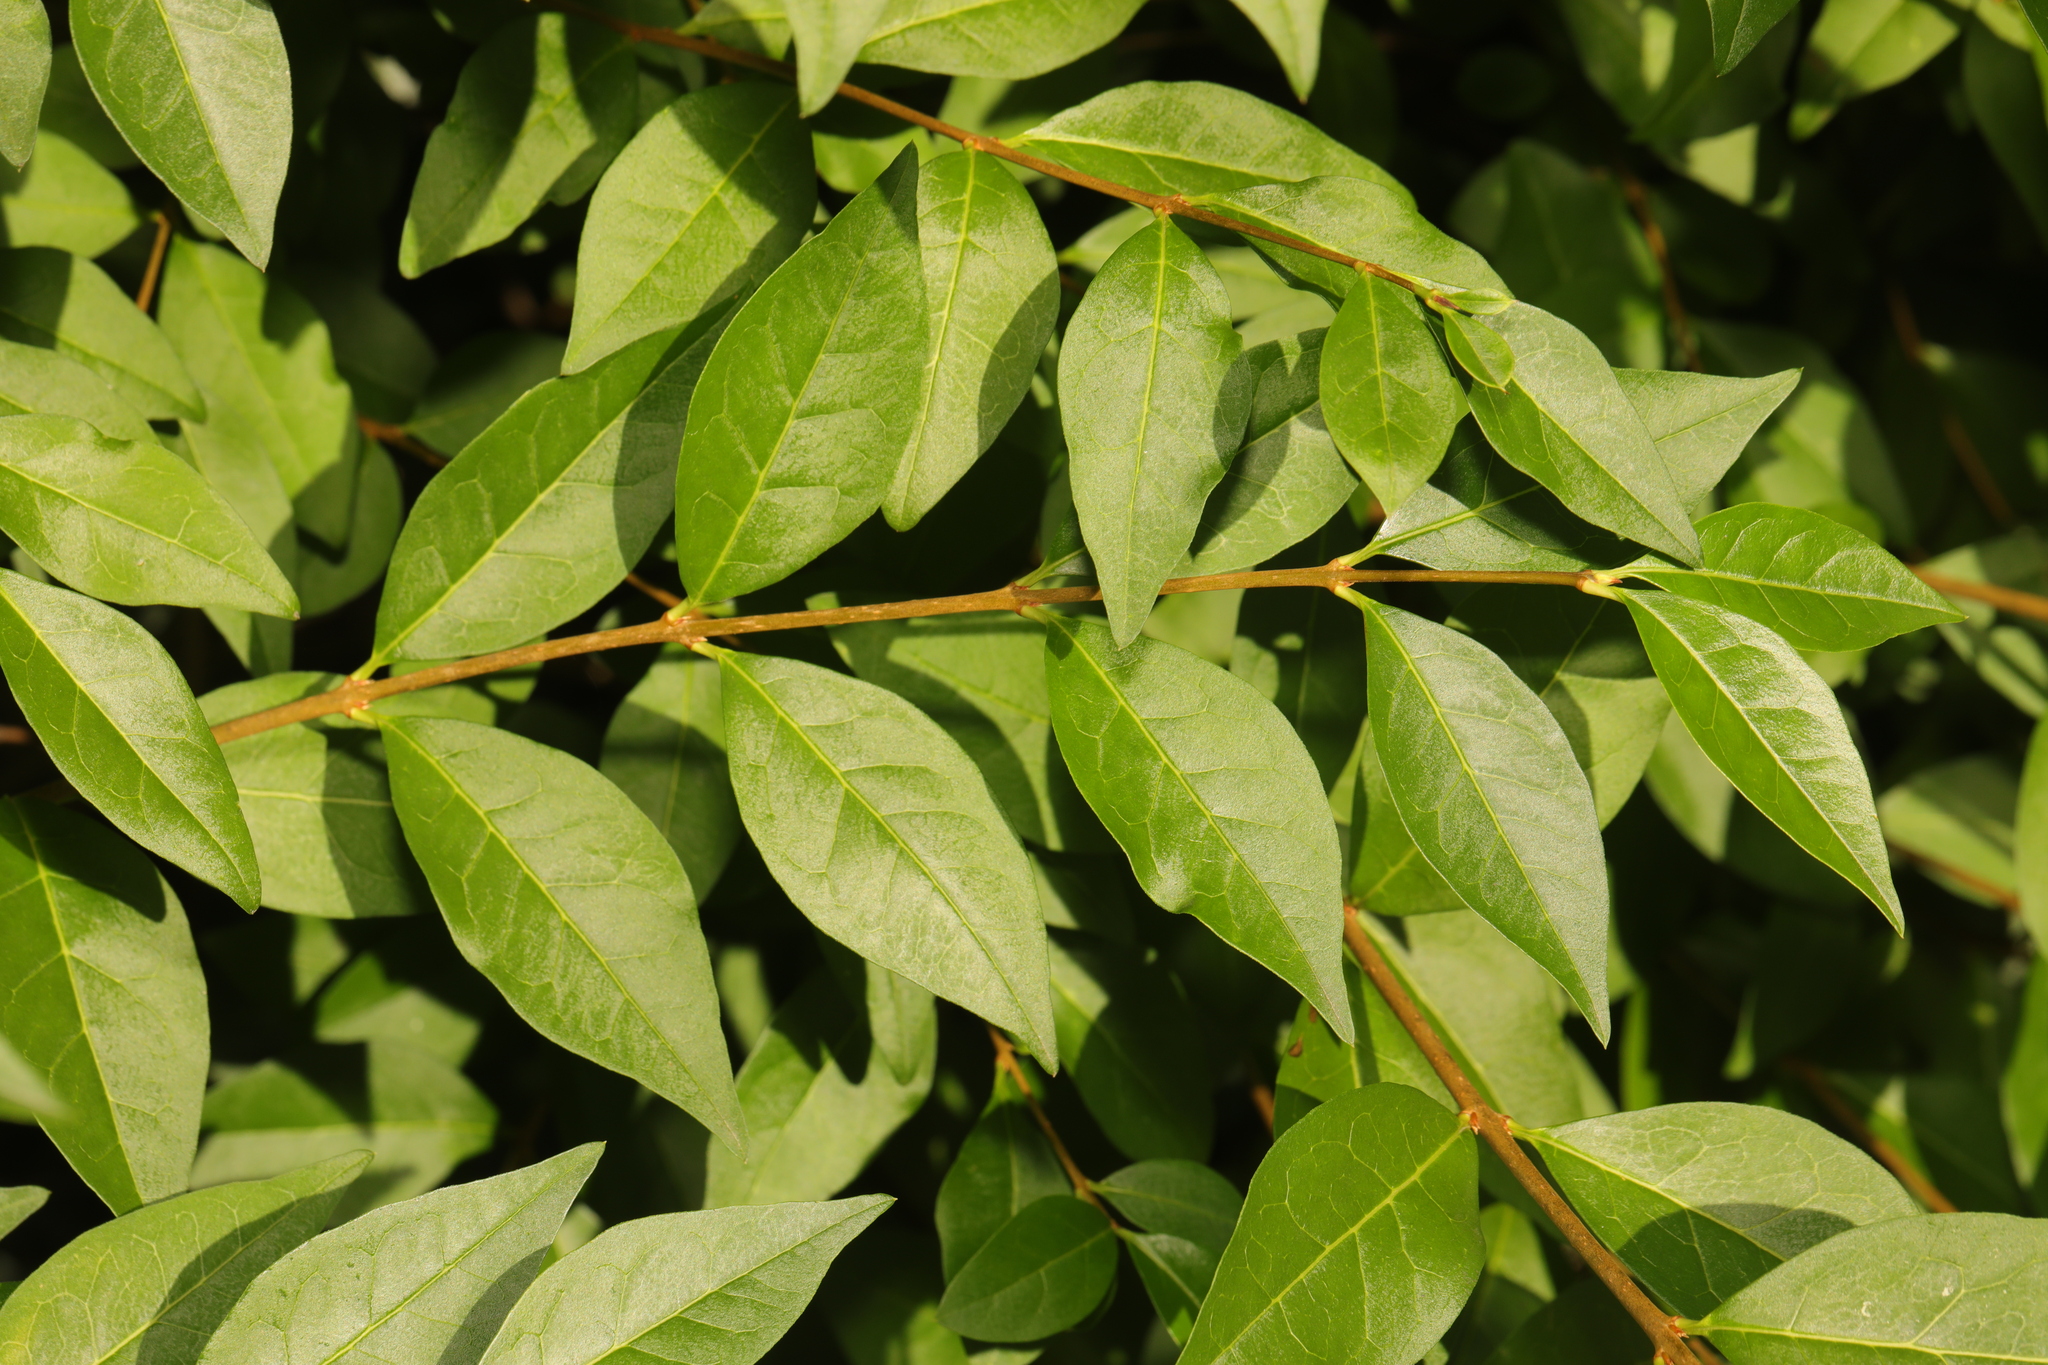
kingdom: Plantae
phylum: Tracheophyta
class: Magnoliopsida
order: Lamiales
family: Oleaceae
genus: Ligustrum
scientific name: Ligustrum ovalifolium
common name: California privet
